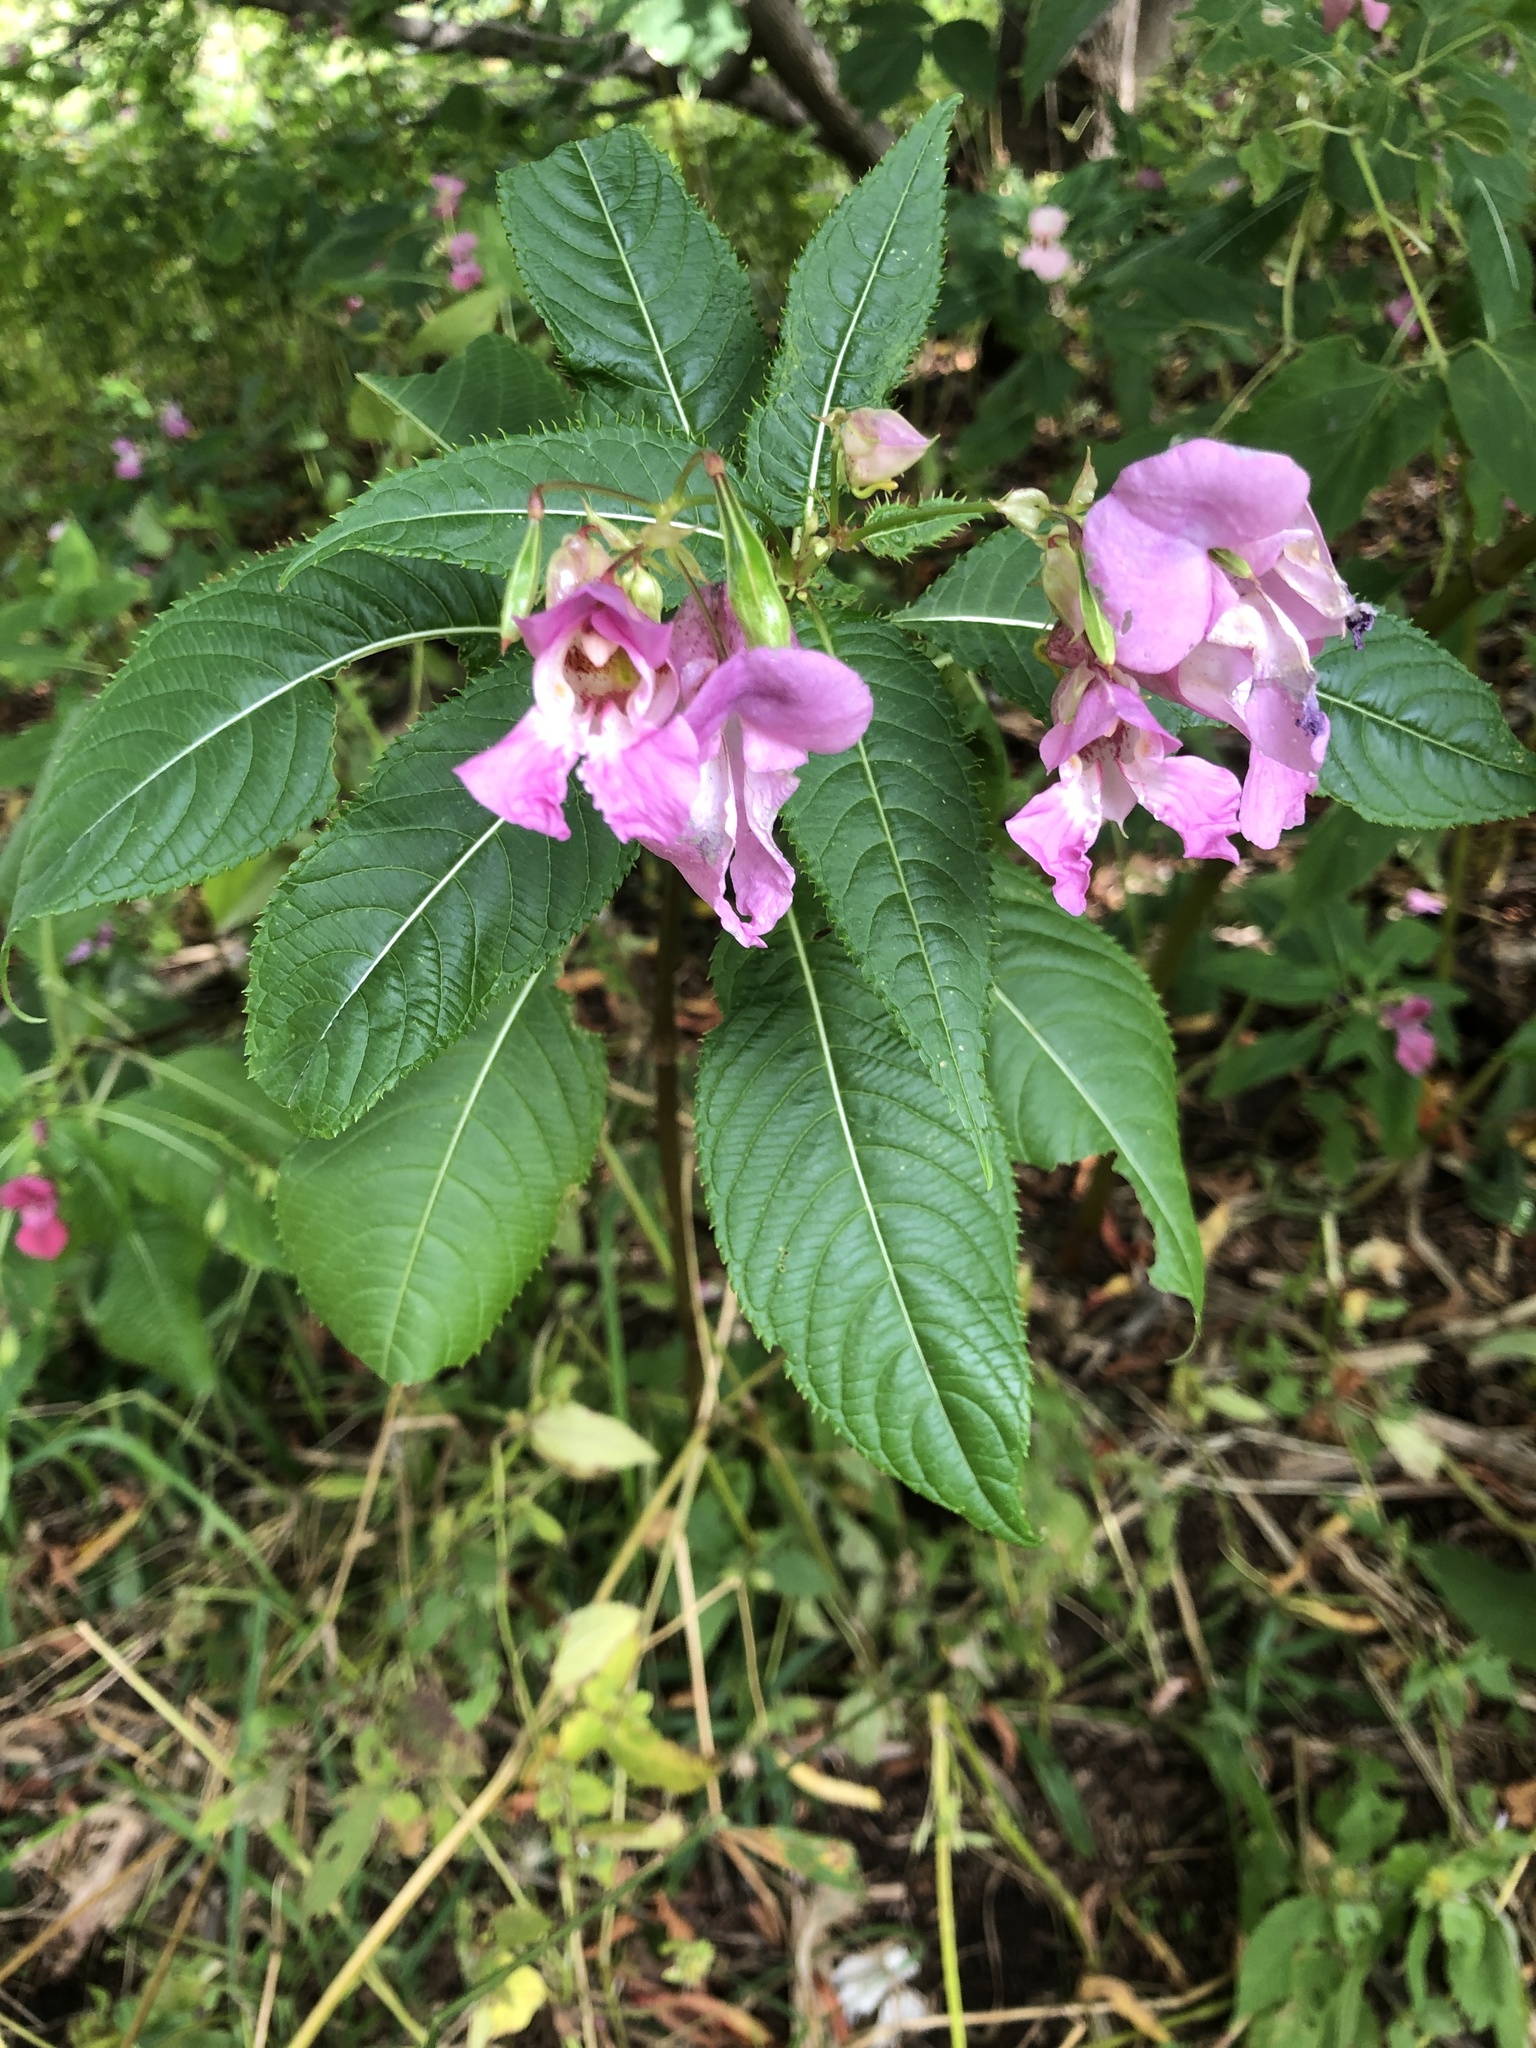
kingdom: Plantae
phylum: Tracheophyta
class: Magnoliopsida
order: Ericales
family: Balsaminaceae
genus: Impatiens
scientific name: Impatiens glandulifera
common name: Himalayan balsam
